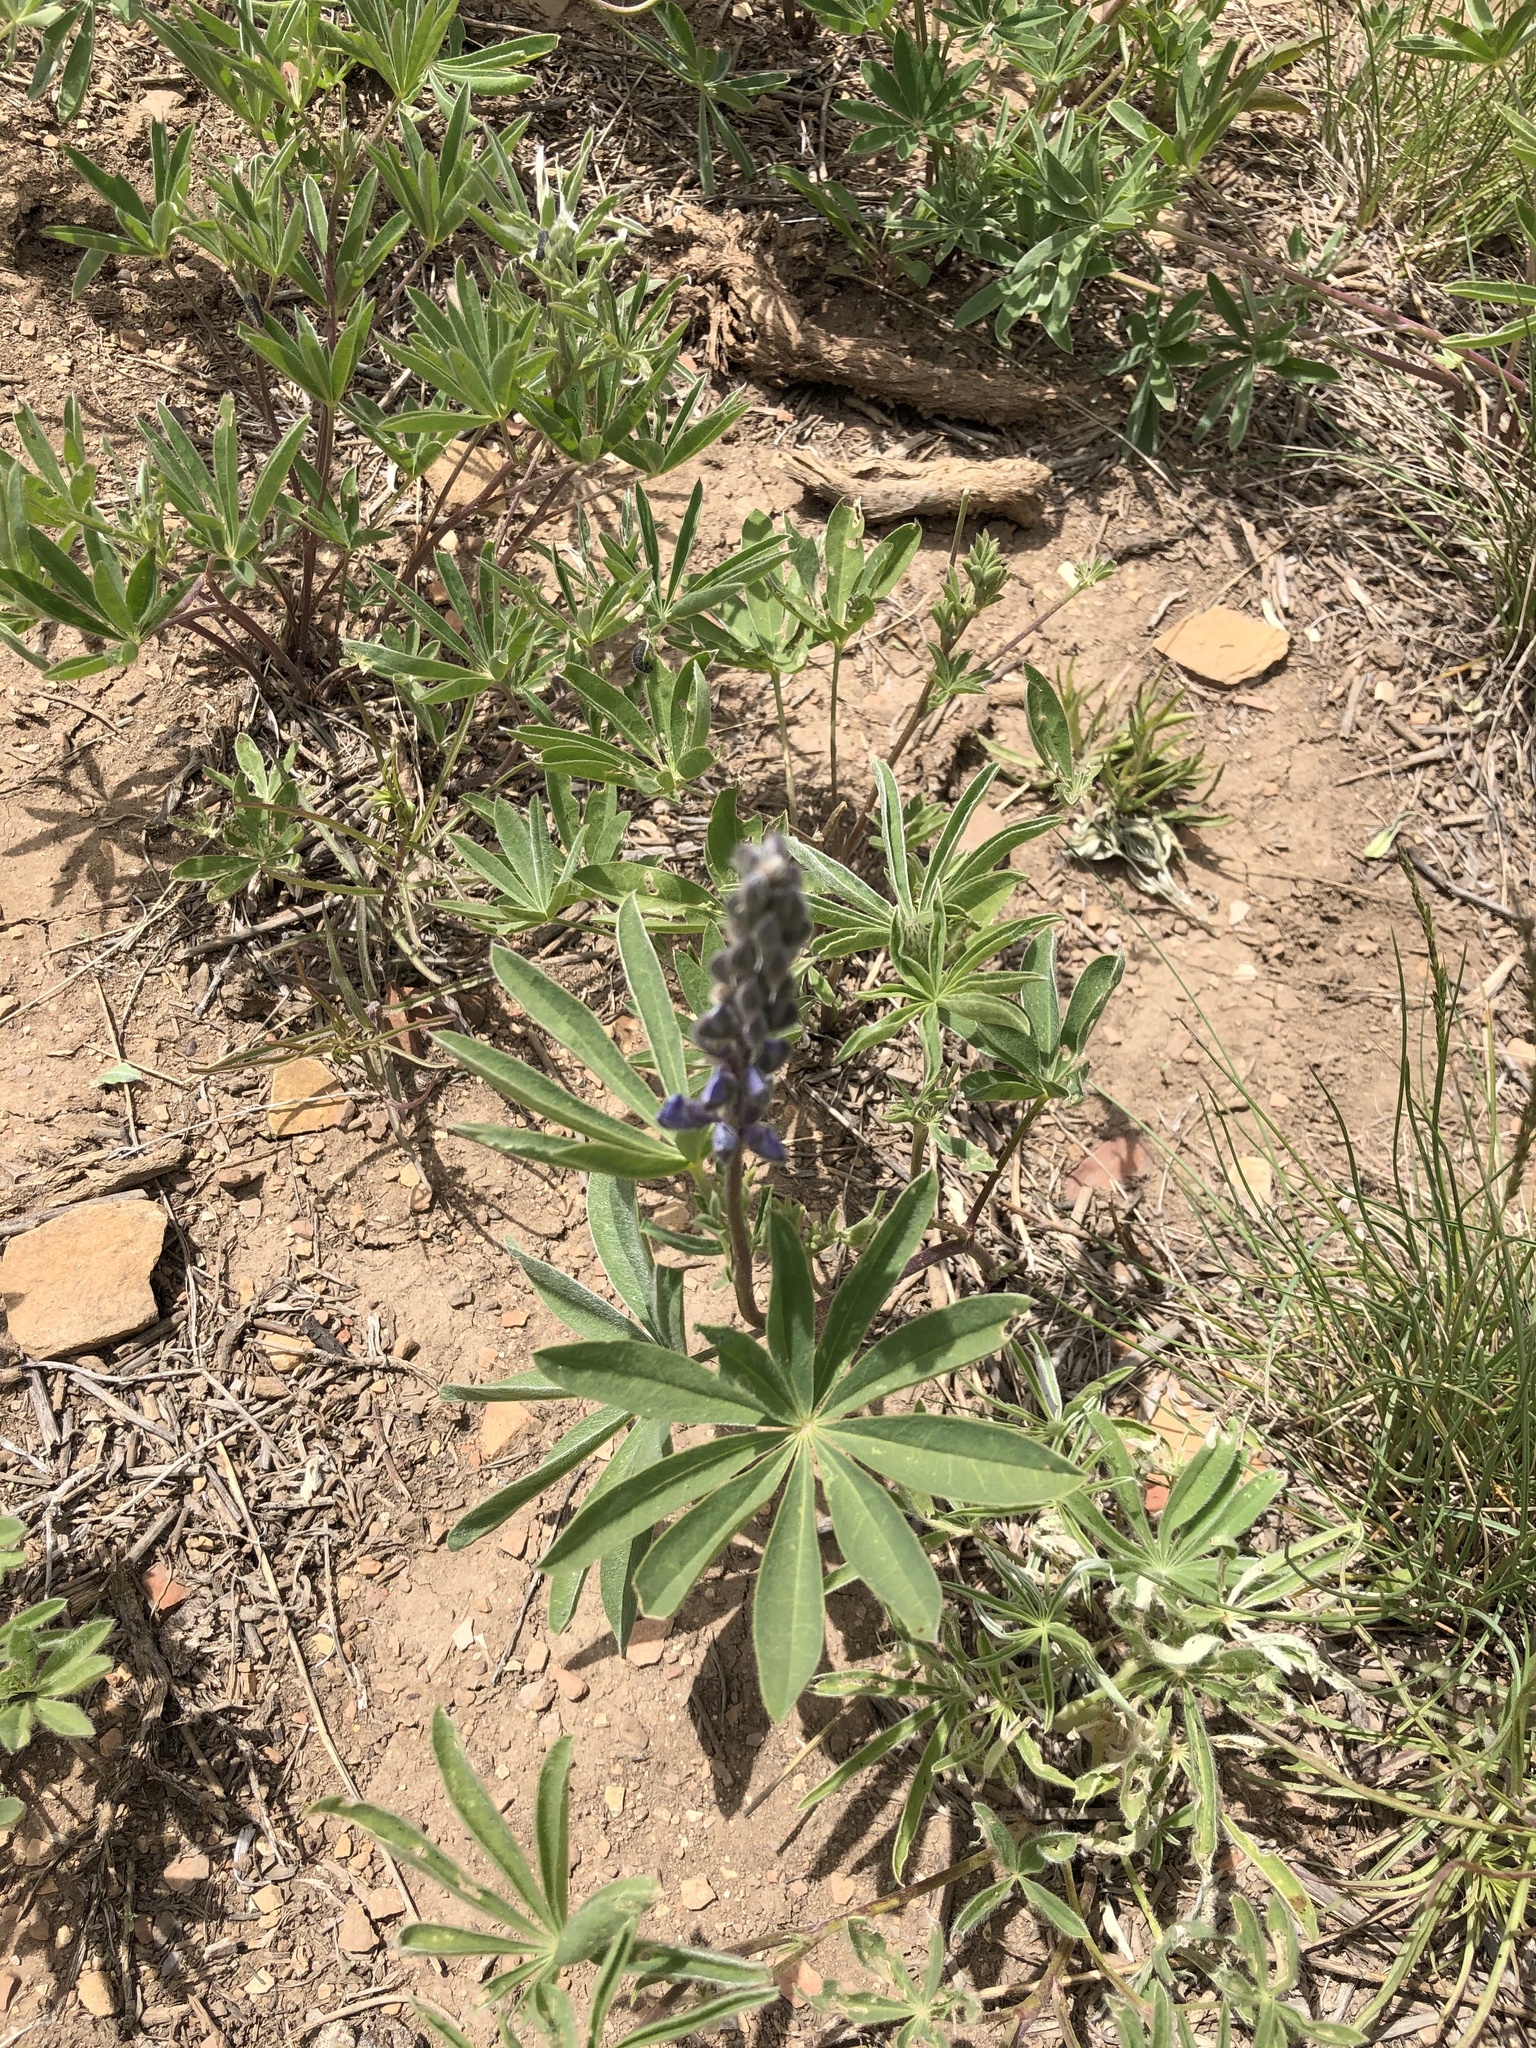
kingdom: Plantae
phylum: Tracheophyta
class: Magnoliopsida
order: Fabales
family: Fabaceae
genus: Lupinus
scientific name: Lupinus argenteus
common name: Silvery lupine
